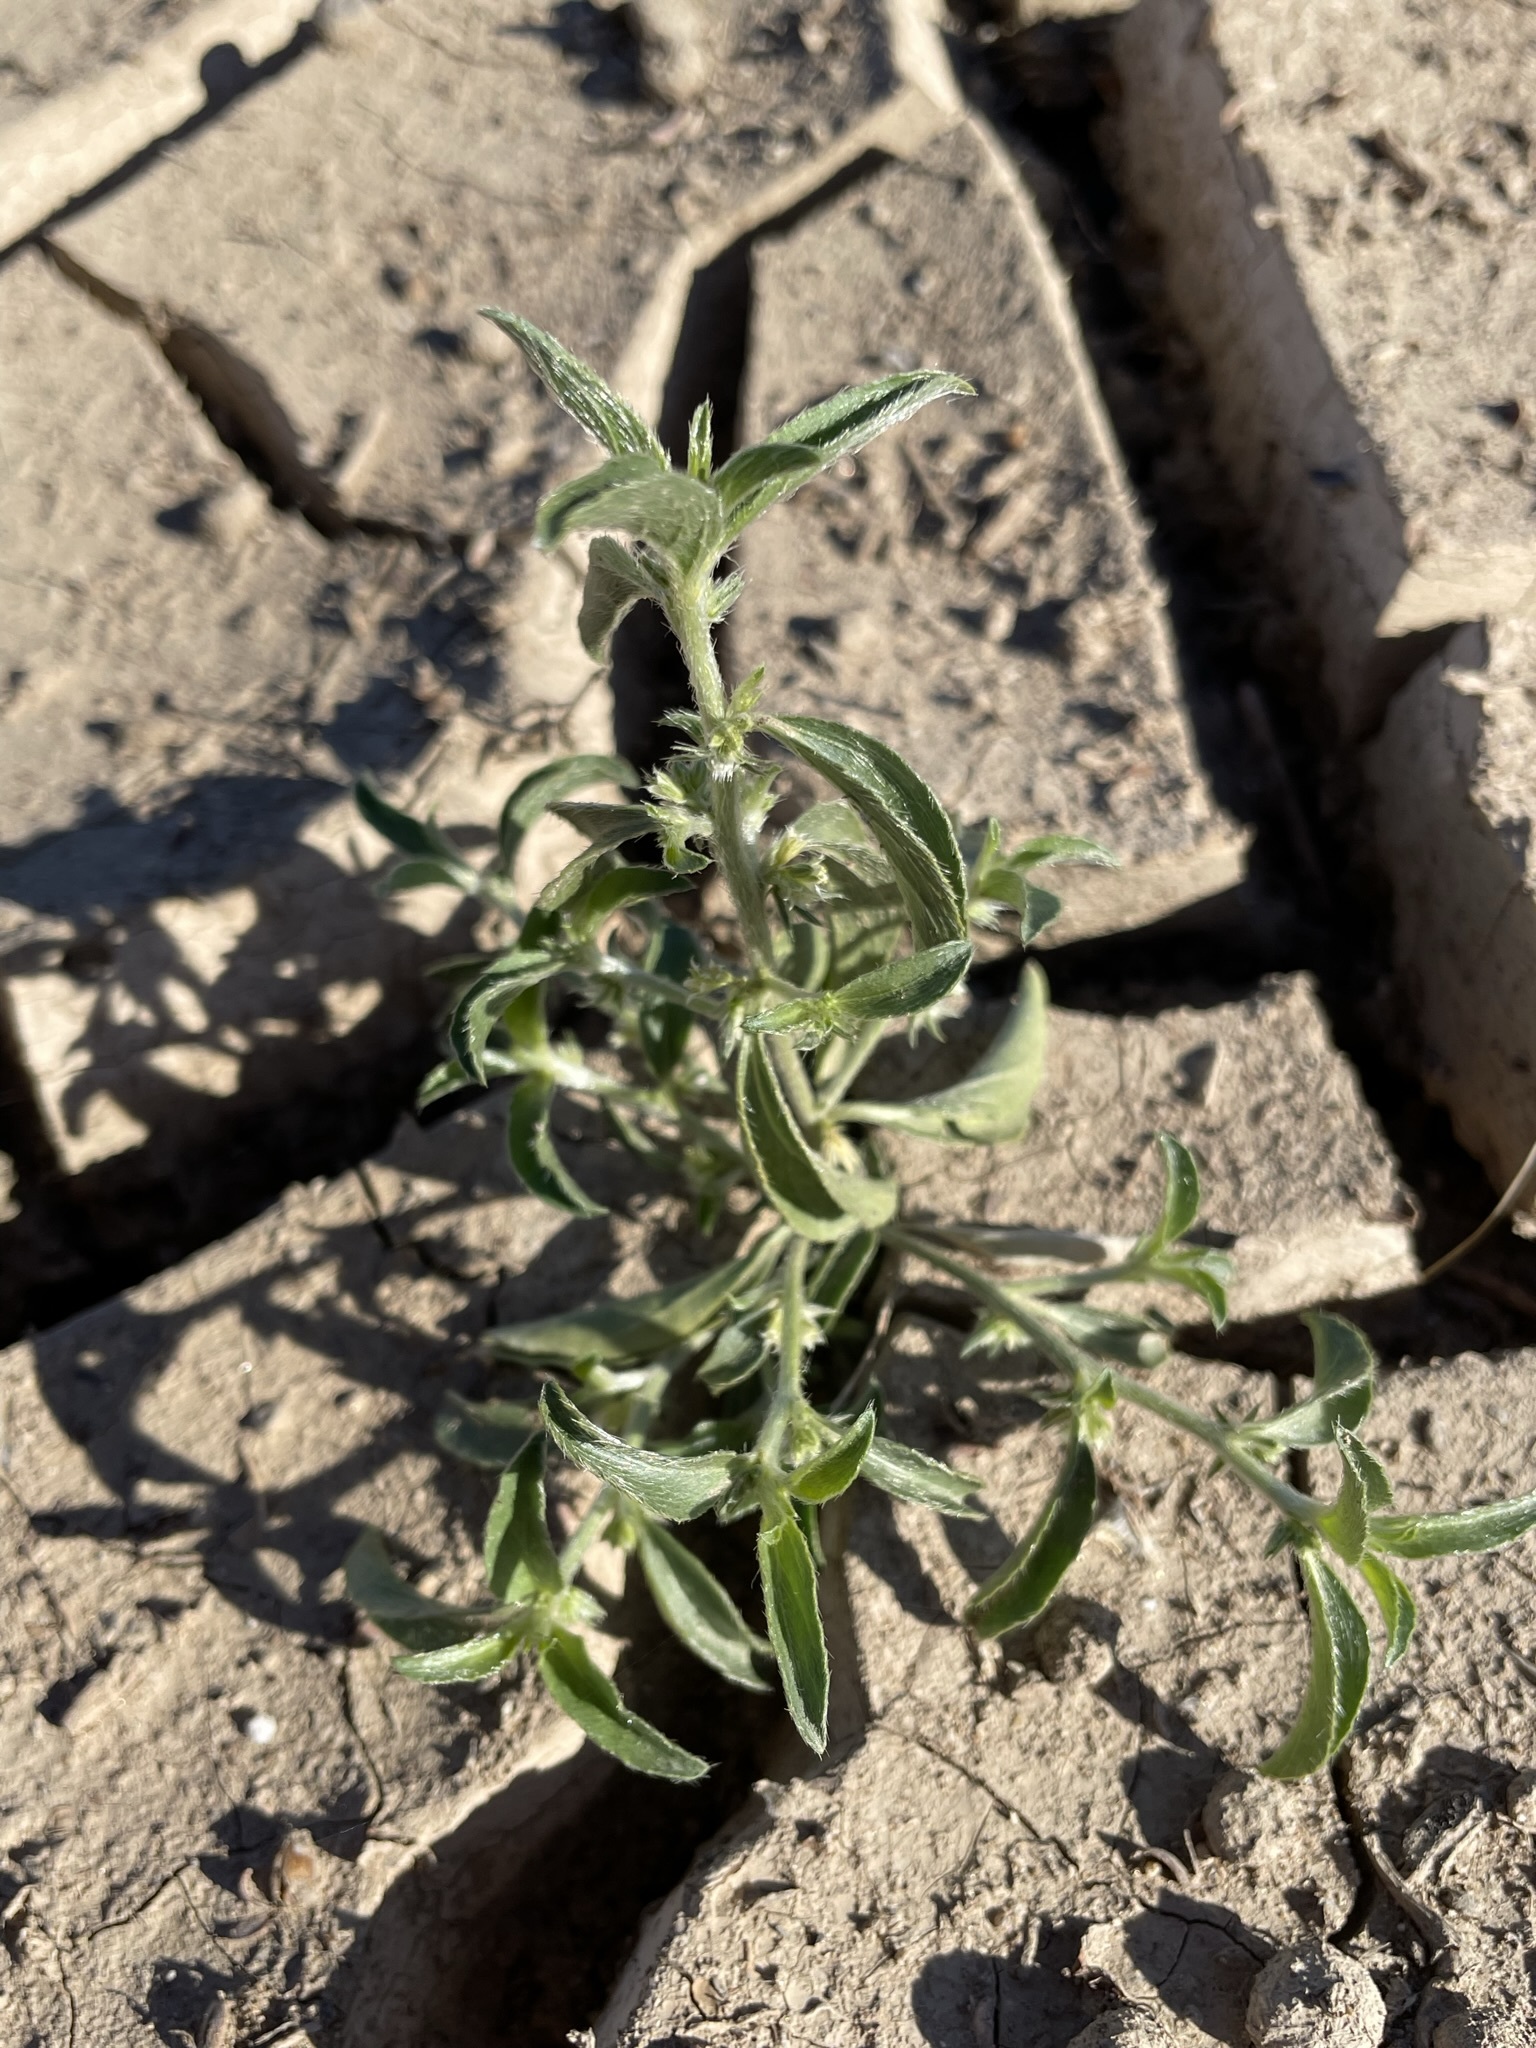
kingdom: Plantae
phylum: Tracheophyta
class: Magnoliopsida
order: Malpighiales
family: Euphorbiaceae
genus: Ditaxis
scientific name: Ditaxis serrata
